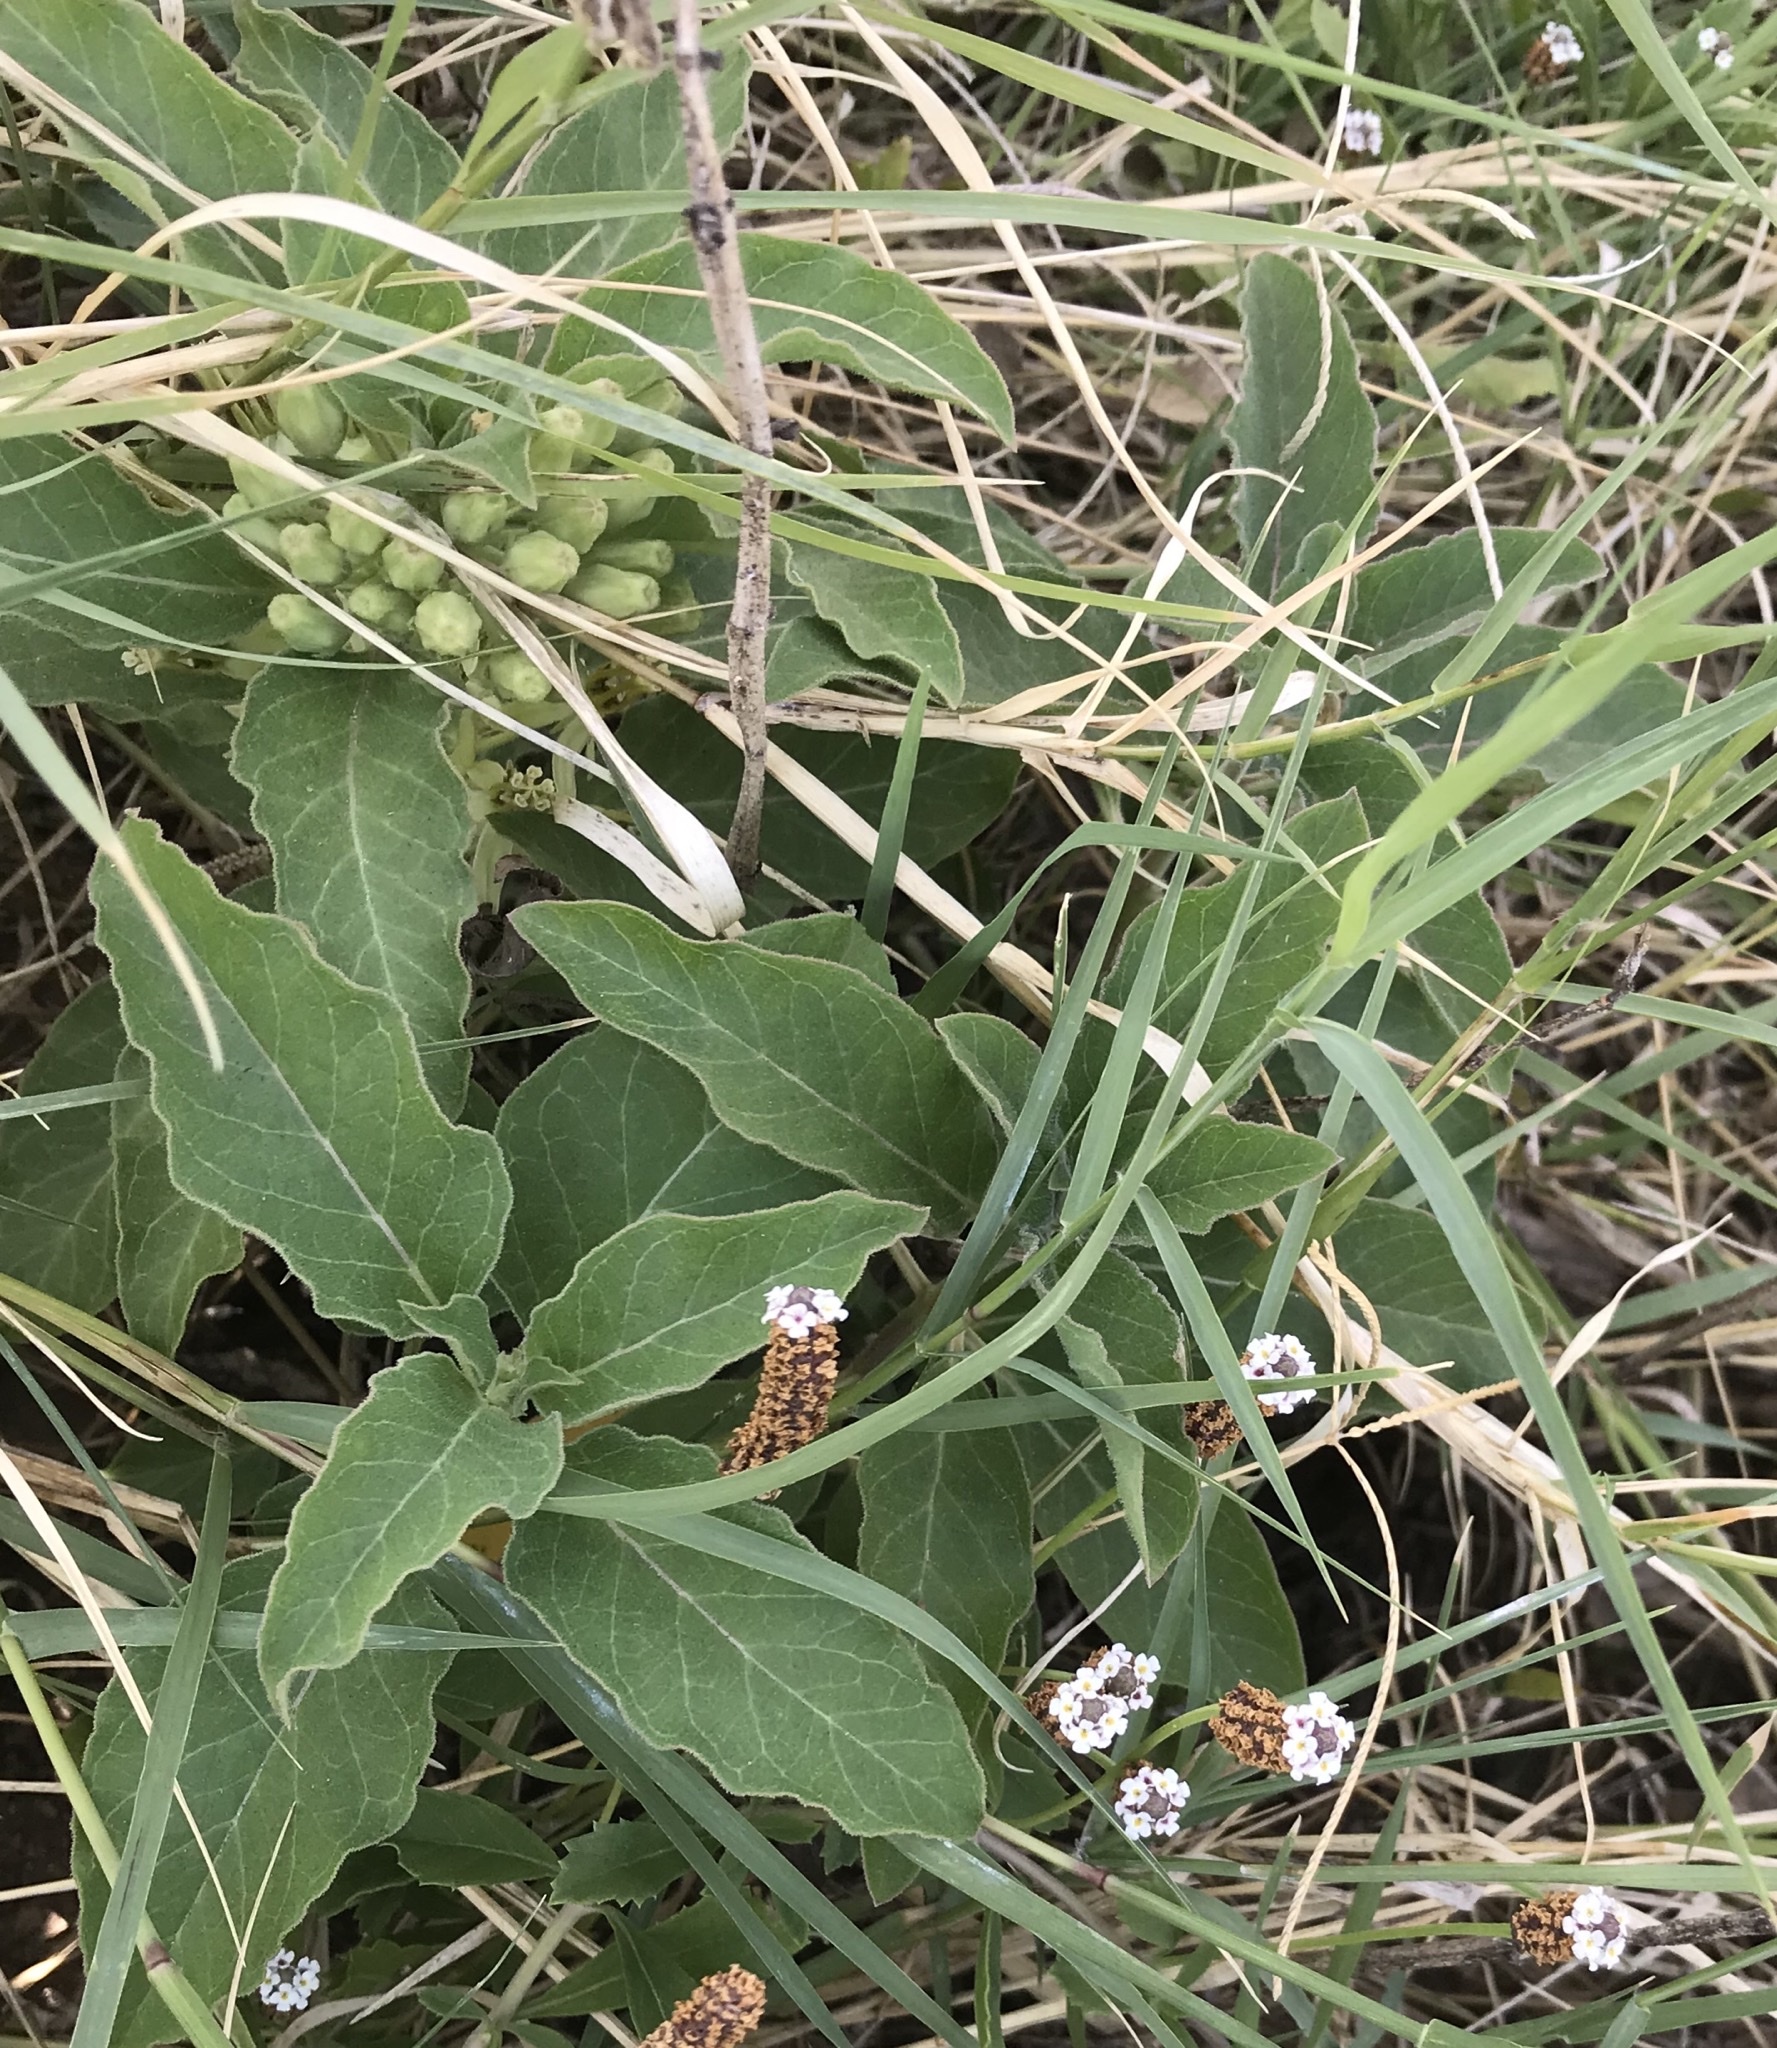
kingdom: Plantae
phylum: Tracheophyta
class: Magnoliopsida
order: Gentianales
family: Apocynaceae
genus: Asclepias
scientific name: Asclepias oenotheroides
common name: Zizotes milkweed
